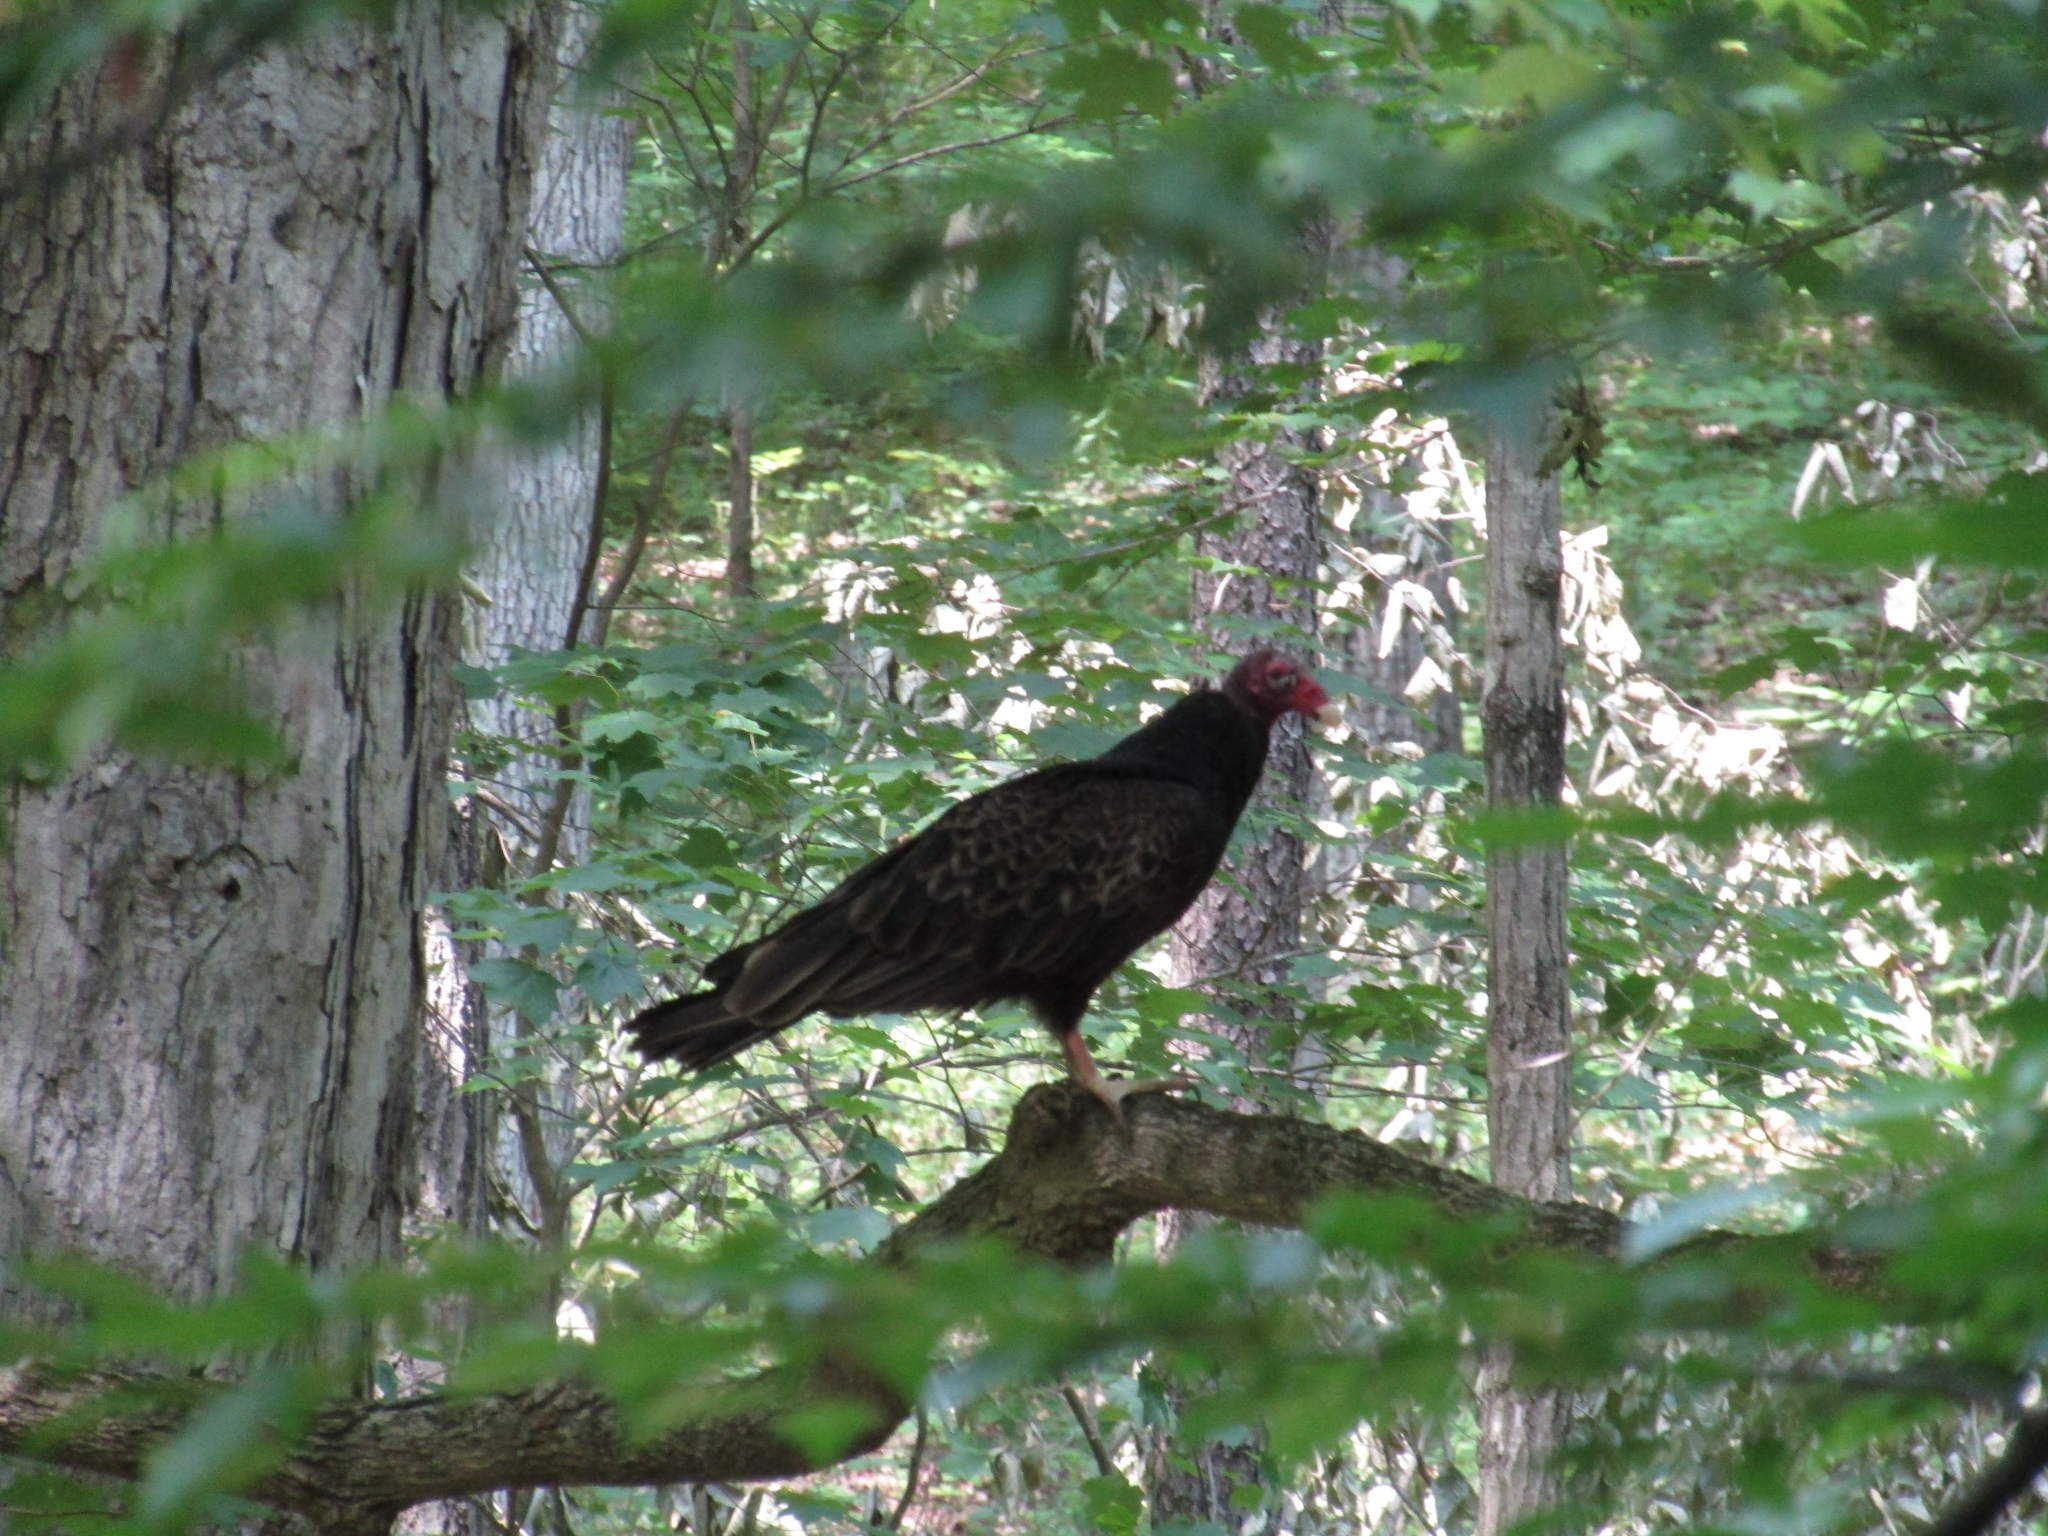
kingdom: Animalia
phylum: Chordata
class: Aves
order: Accipitriformes
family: Cathartidae
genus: Cathartes
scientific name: Cathartes aura
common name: Turkey vulture
